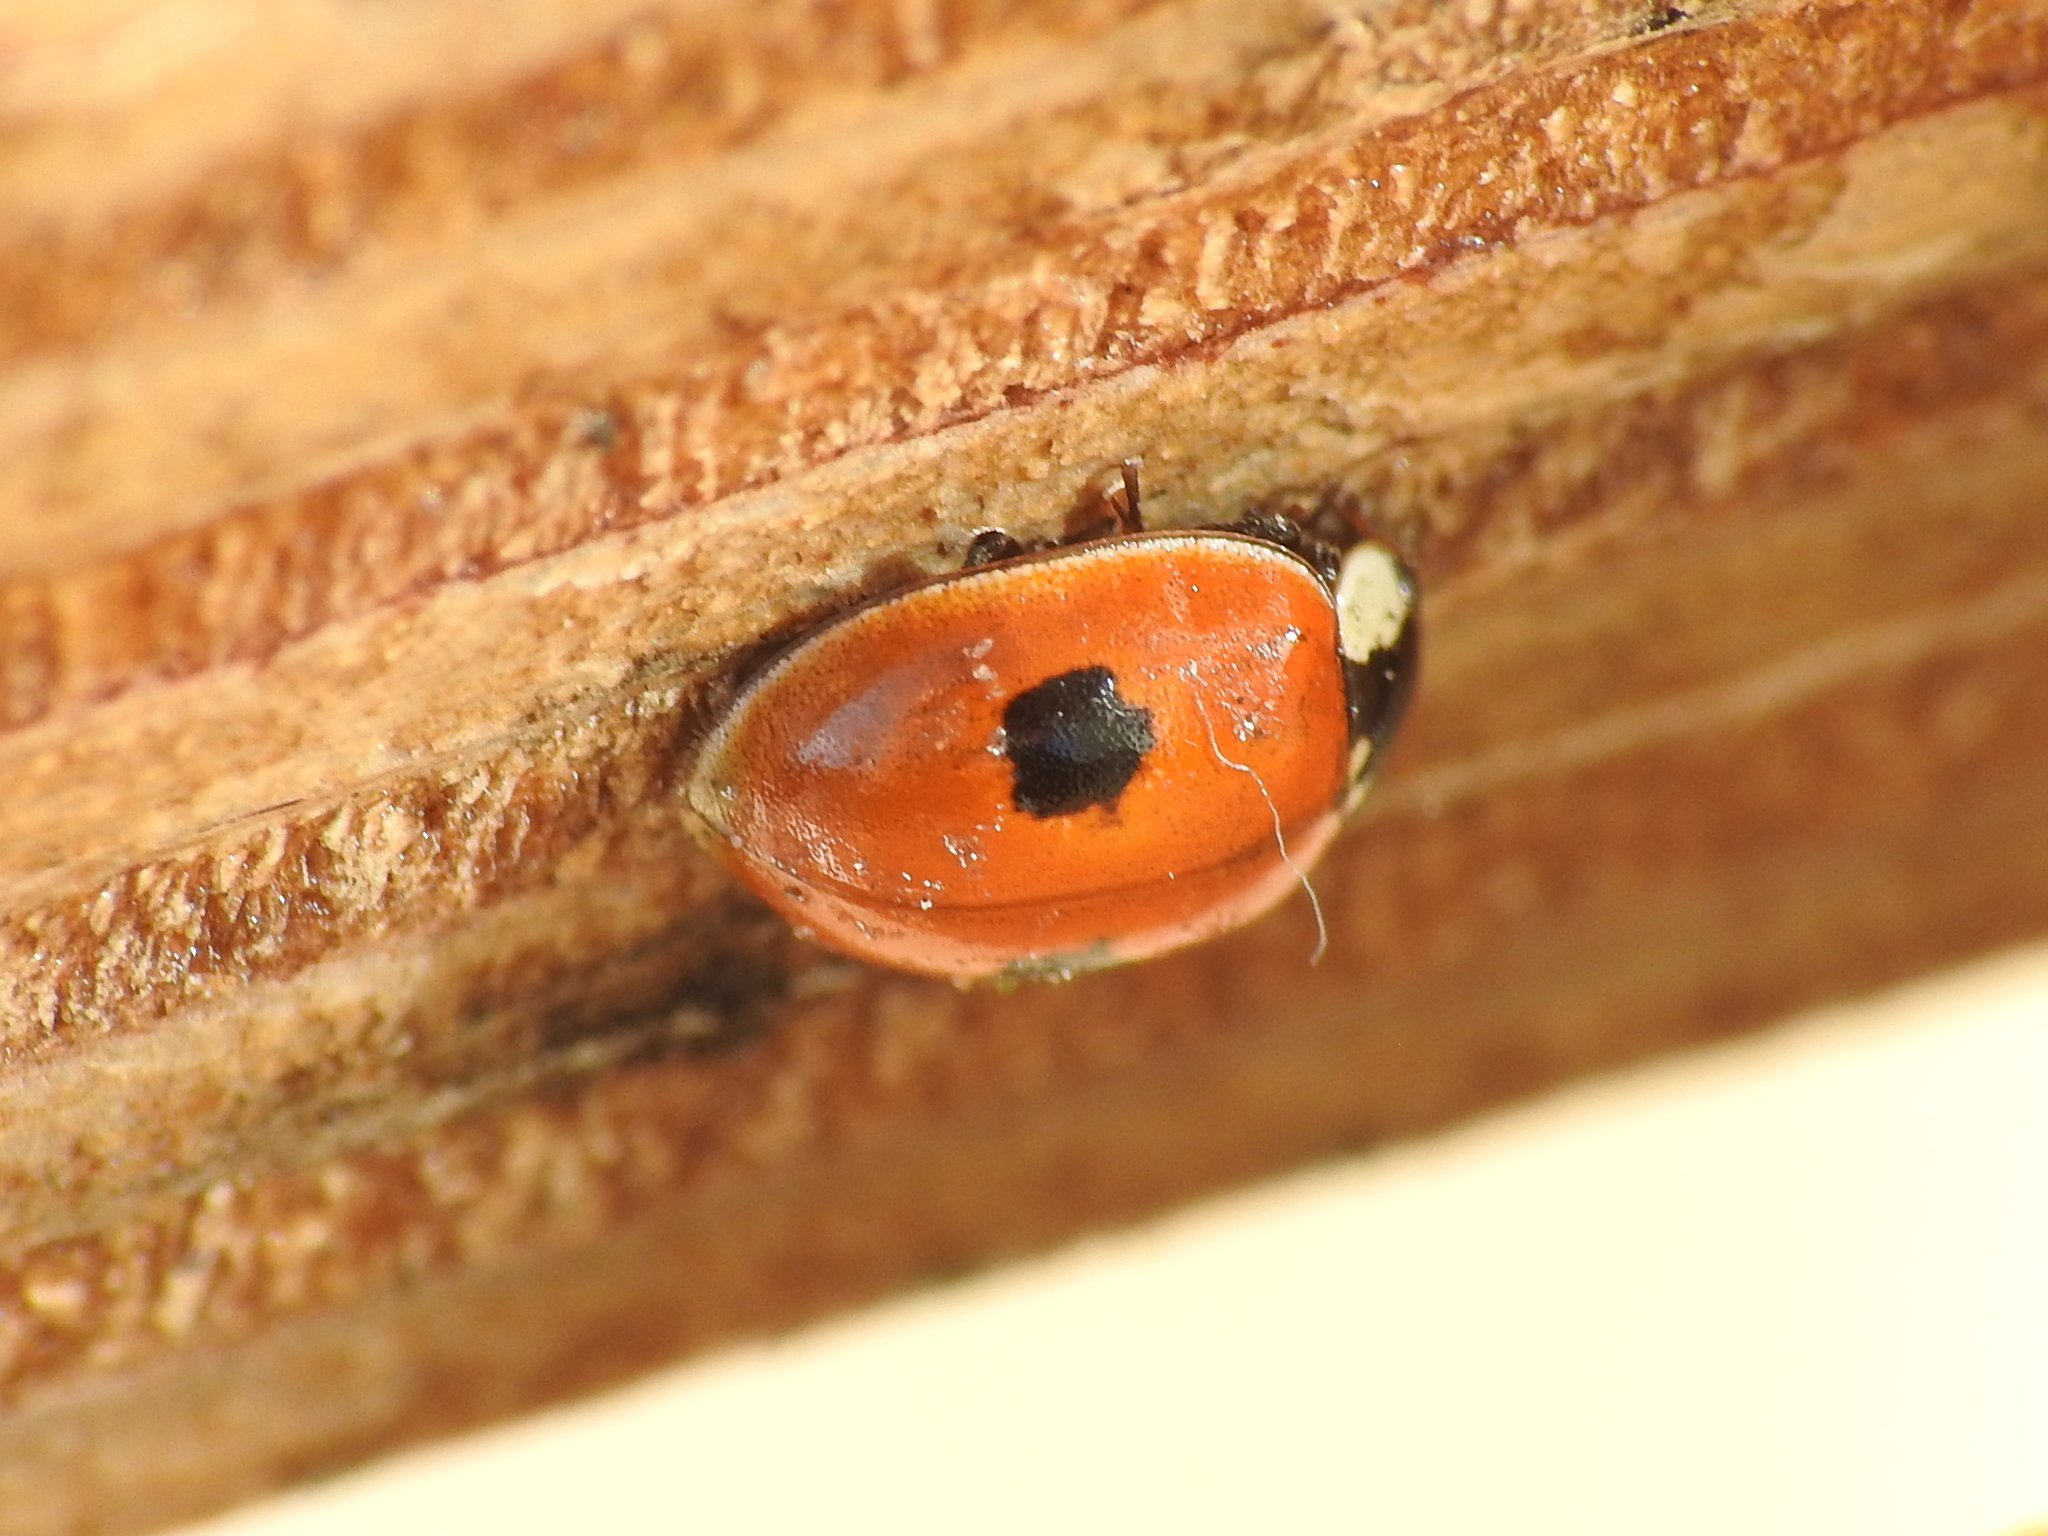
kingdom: Animalia
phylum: Arthropoda
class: Insecta
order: Coleoptera
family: Coccinellidae
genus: Adalia
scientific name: Adalia bipunctata
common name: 2-spot ladybird
